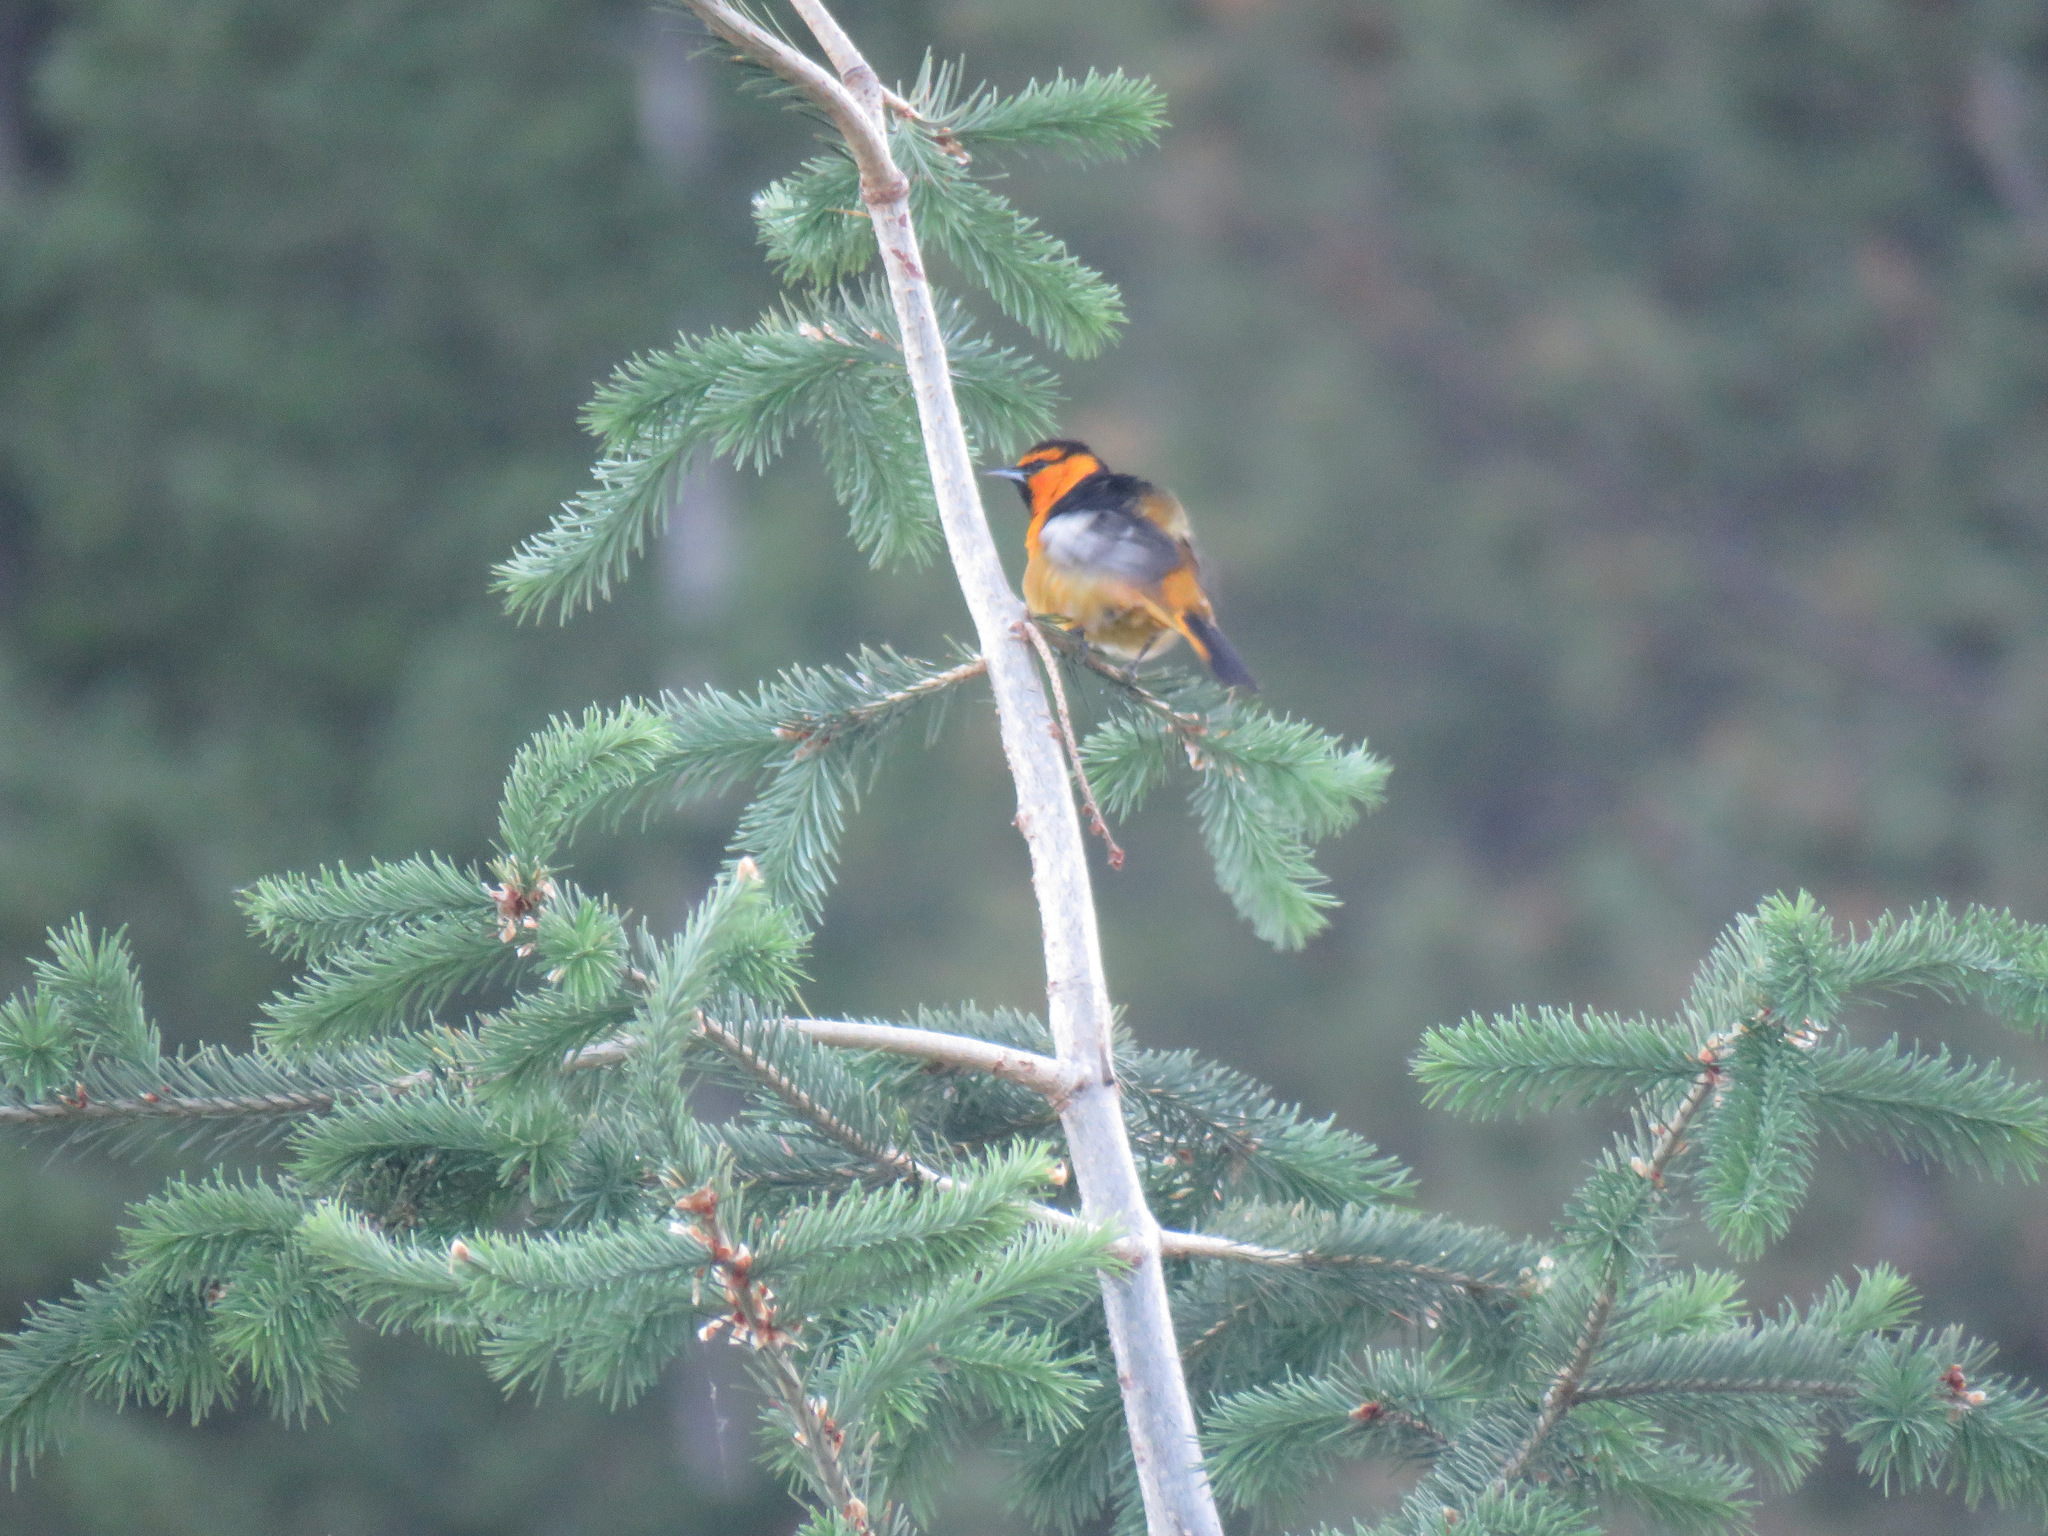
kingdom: Animalia
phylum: Chordata
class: Aves
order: Passeriformes
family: Icteridae
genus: Icterus
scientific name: Icterus bullockii
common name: Bullock's oriole
